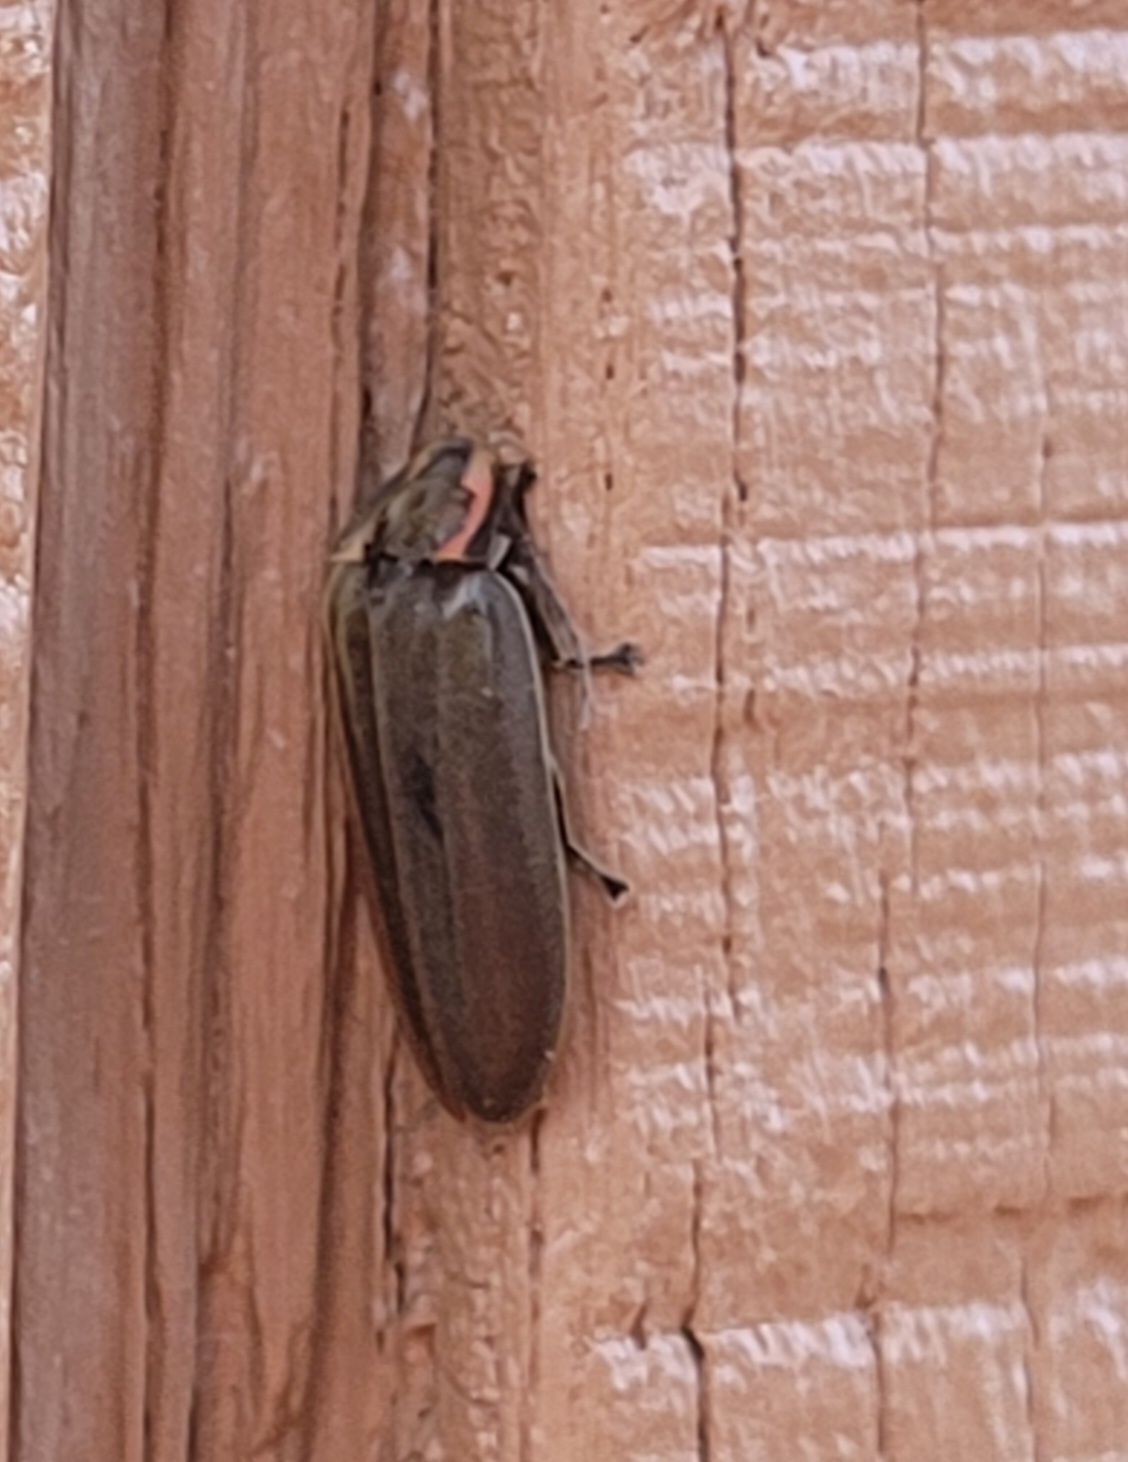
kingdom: Animalia
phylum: Arthropoda
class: Insecta
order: Coleoptera
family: Lampyridae
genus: Photinus
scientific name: Photinus corrusca
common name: Winter firefly
